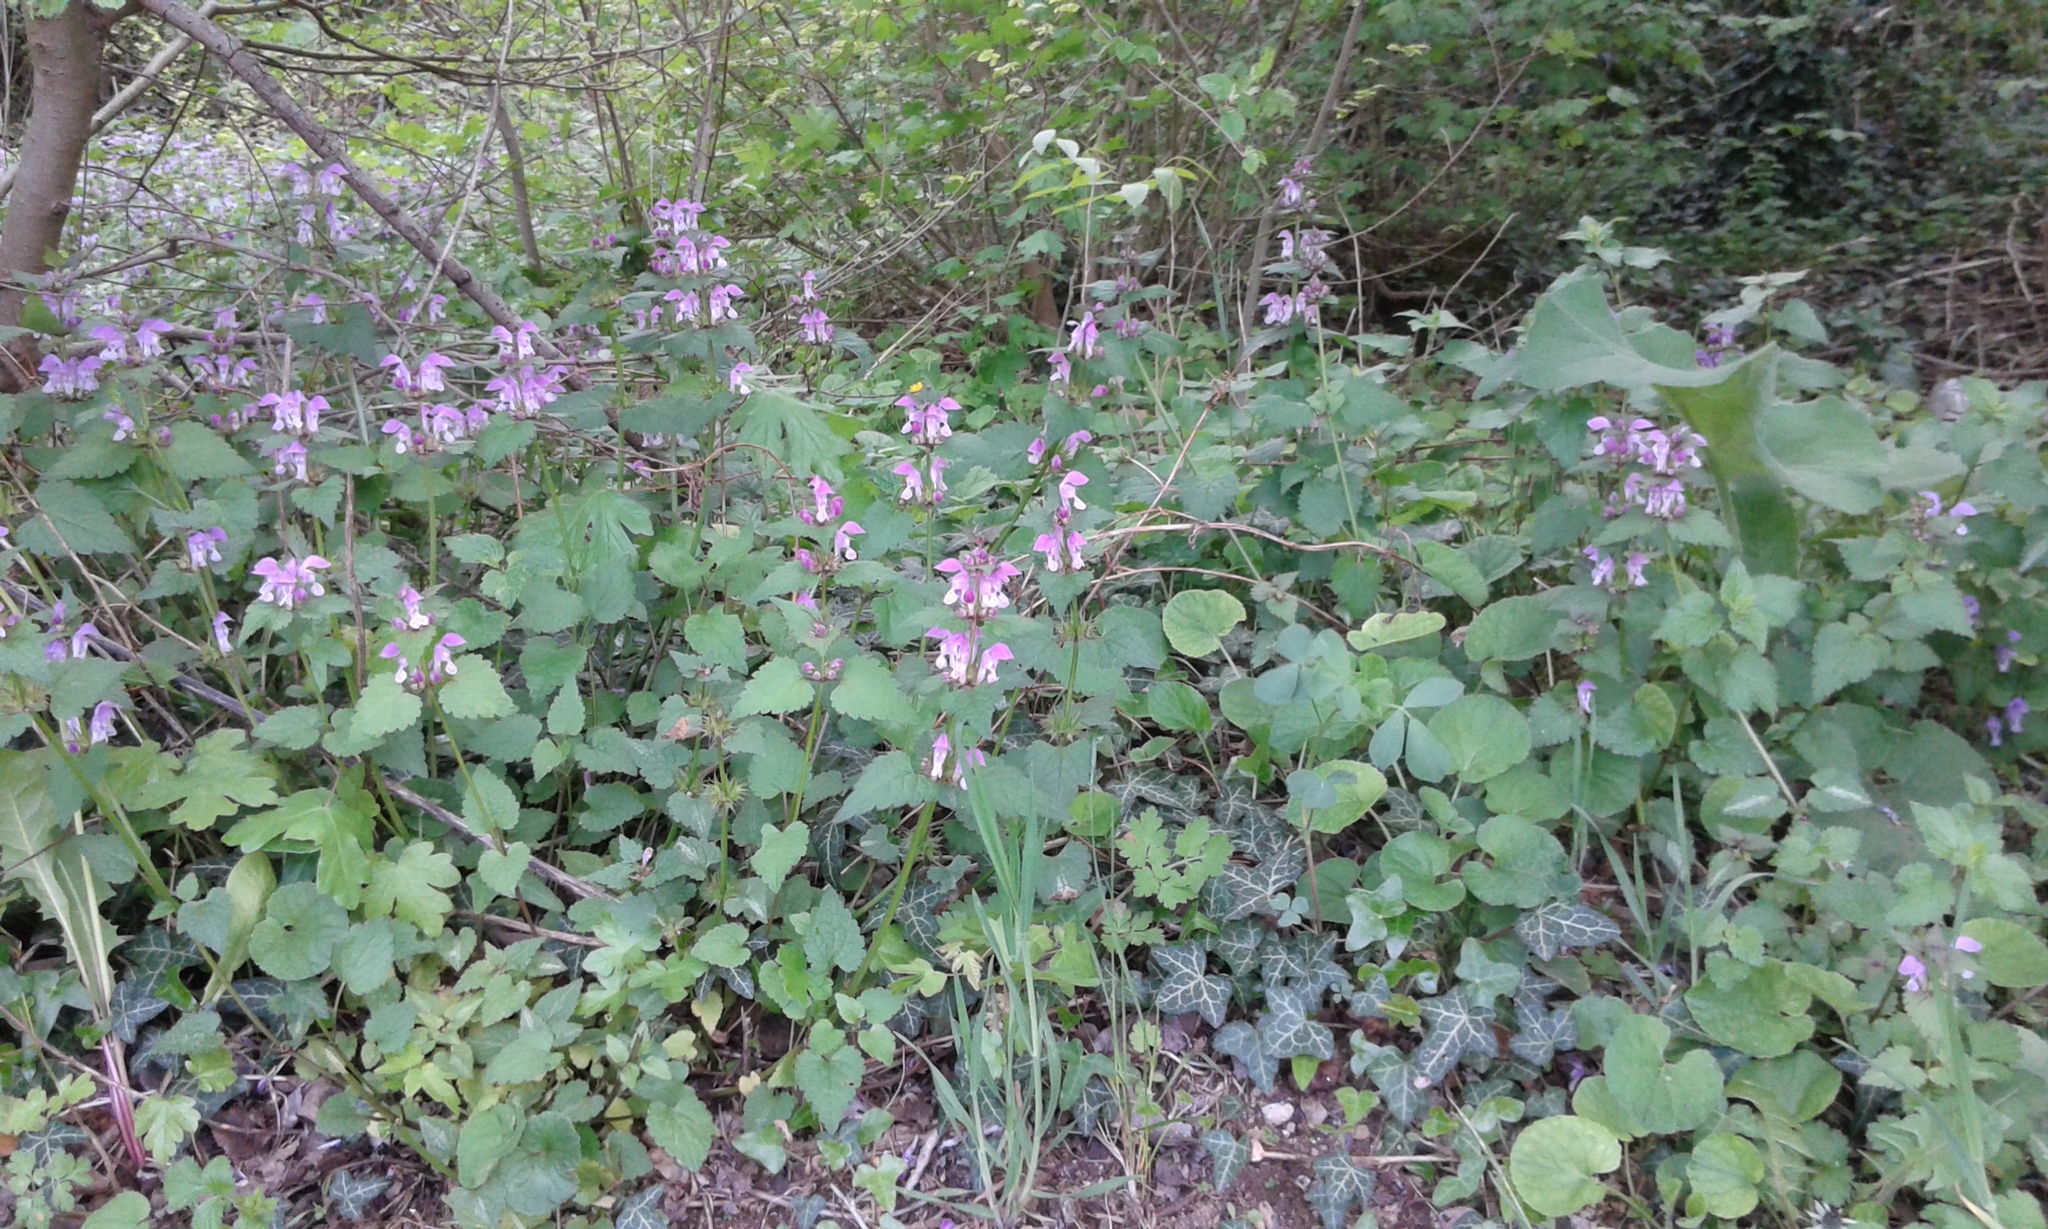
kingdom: Plantae
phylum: Tracheophyta
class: Magnoliopsida
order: Lamiales
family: Lamiaceae
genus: Lamium
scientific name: Lamium maculatum
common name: Spotted dead-nettle
